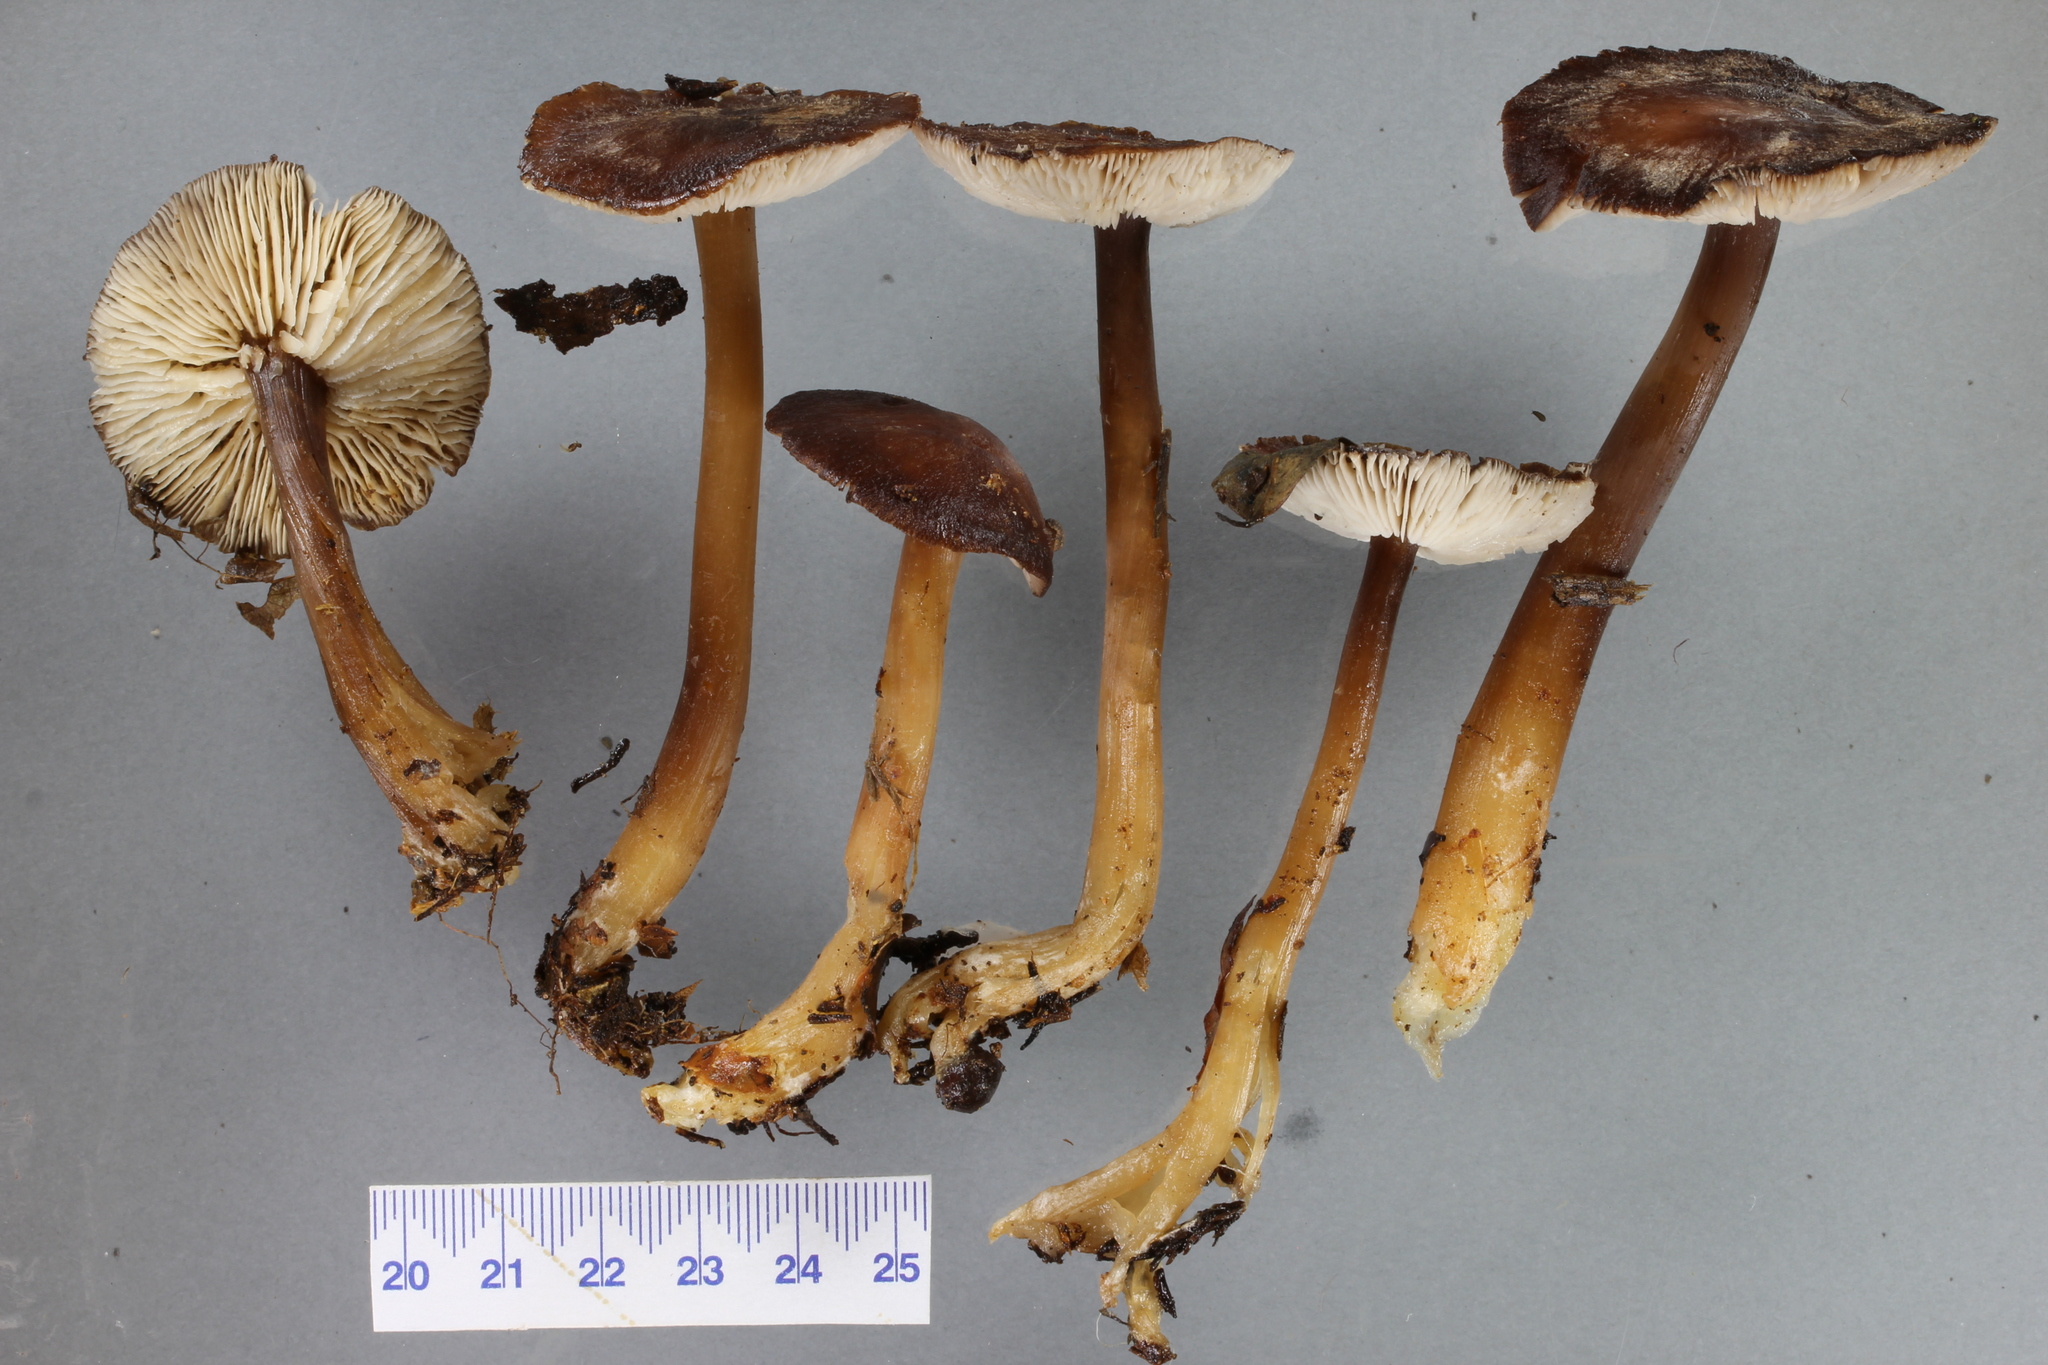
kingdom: Fungi
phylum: Basidiomycota
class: Agaricomycetes
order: Agaricales
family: Omphalotaceae
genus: Rhodocollybia
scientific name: Rhodocollybia purpurata
